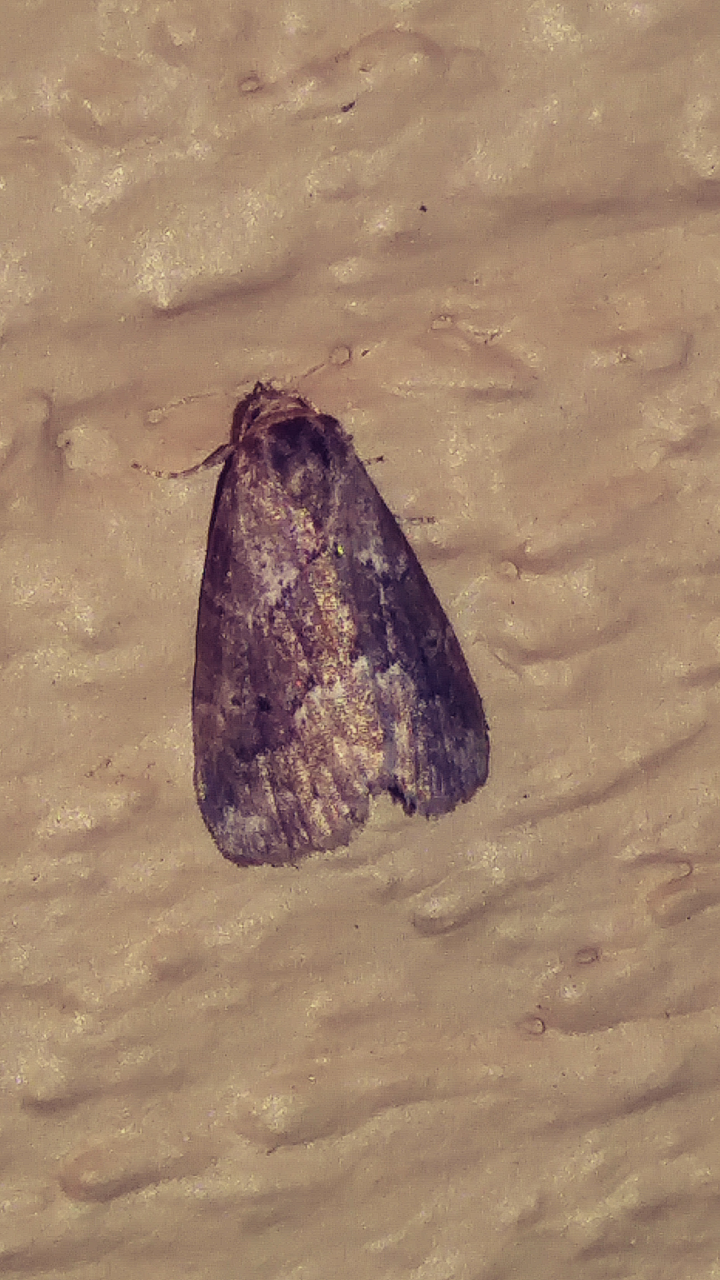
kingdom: Animalia
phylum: Arthropoda
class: Insecta
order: Lepidoptera
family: Erebidae
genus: Hyperstrotia
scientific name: Hyperstrotia nana
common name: White-lined graylet
